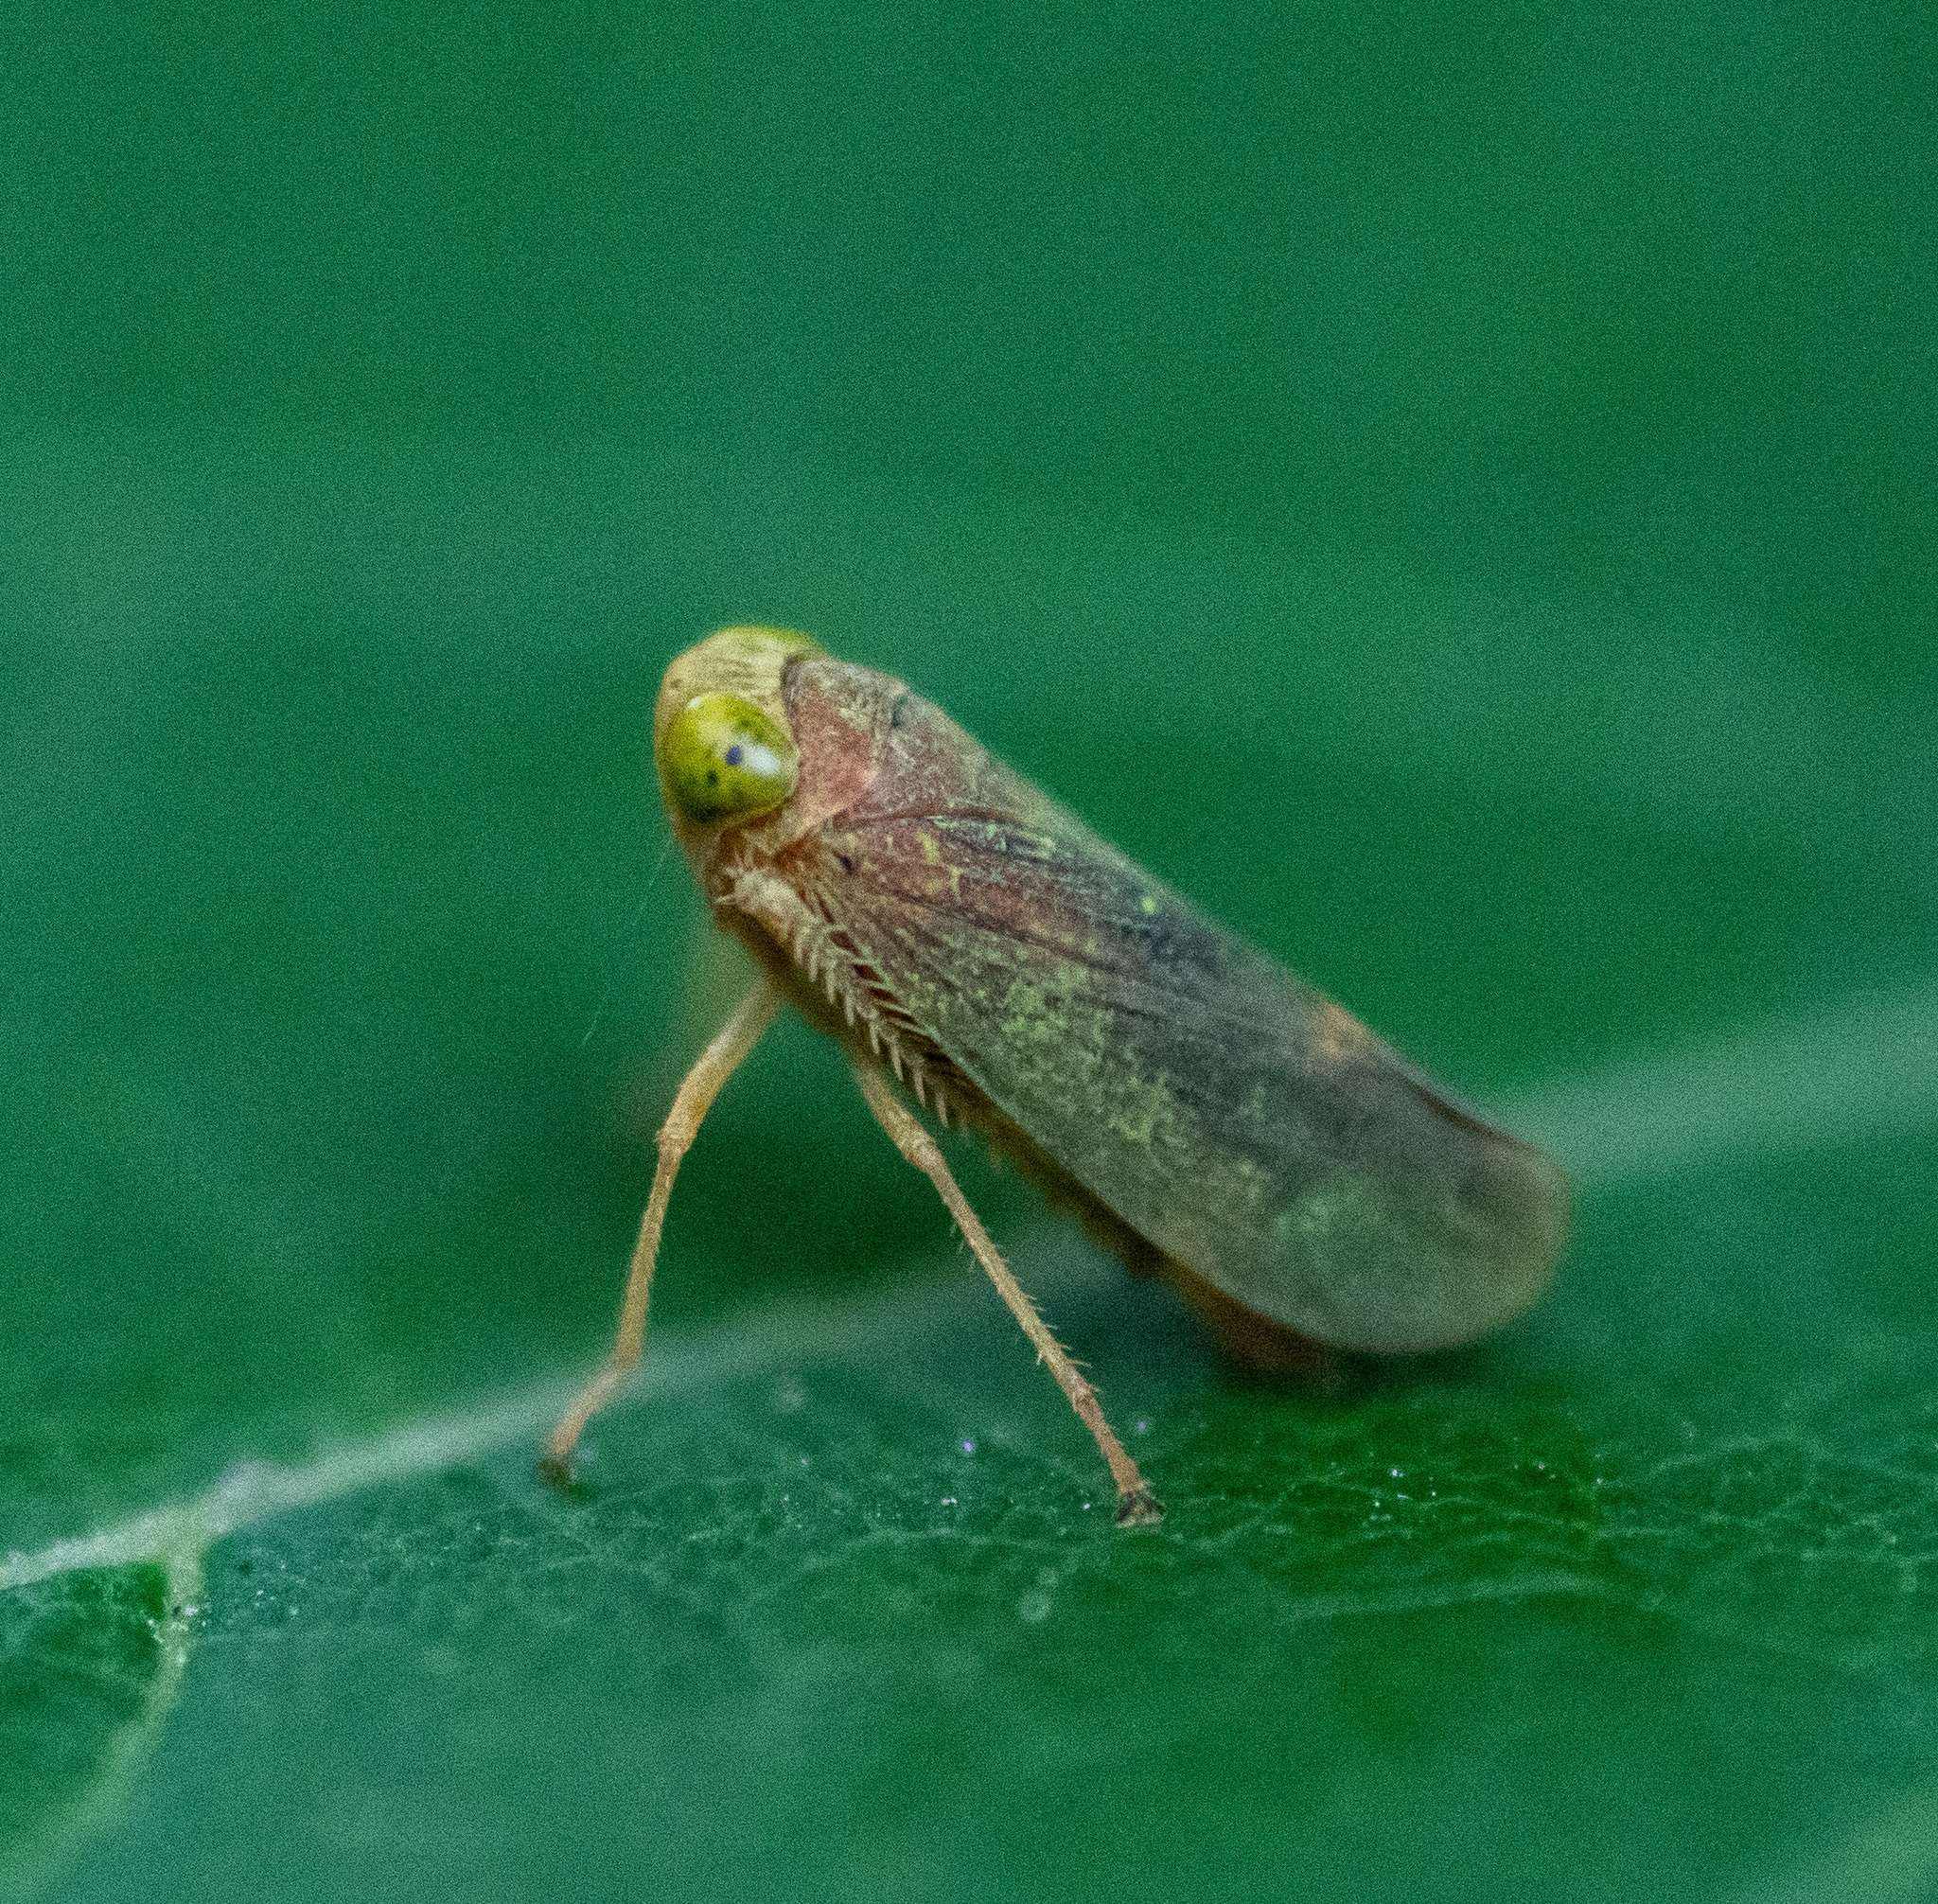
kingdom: Animalia
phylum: Arthropoda
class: Insecta
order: Hemiptera
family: Cicadellidae
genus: Jikradia
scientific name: Jikradia olitoria
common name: Coppery leafhopper
